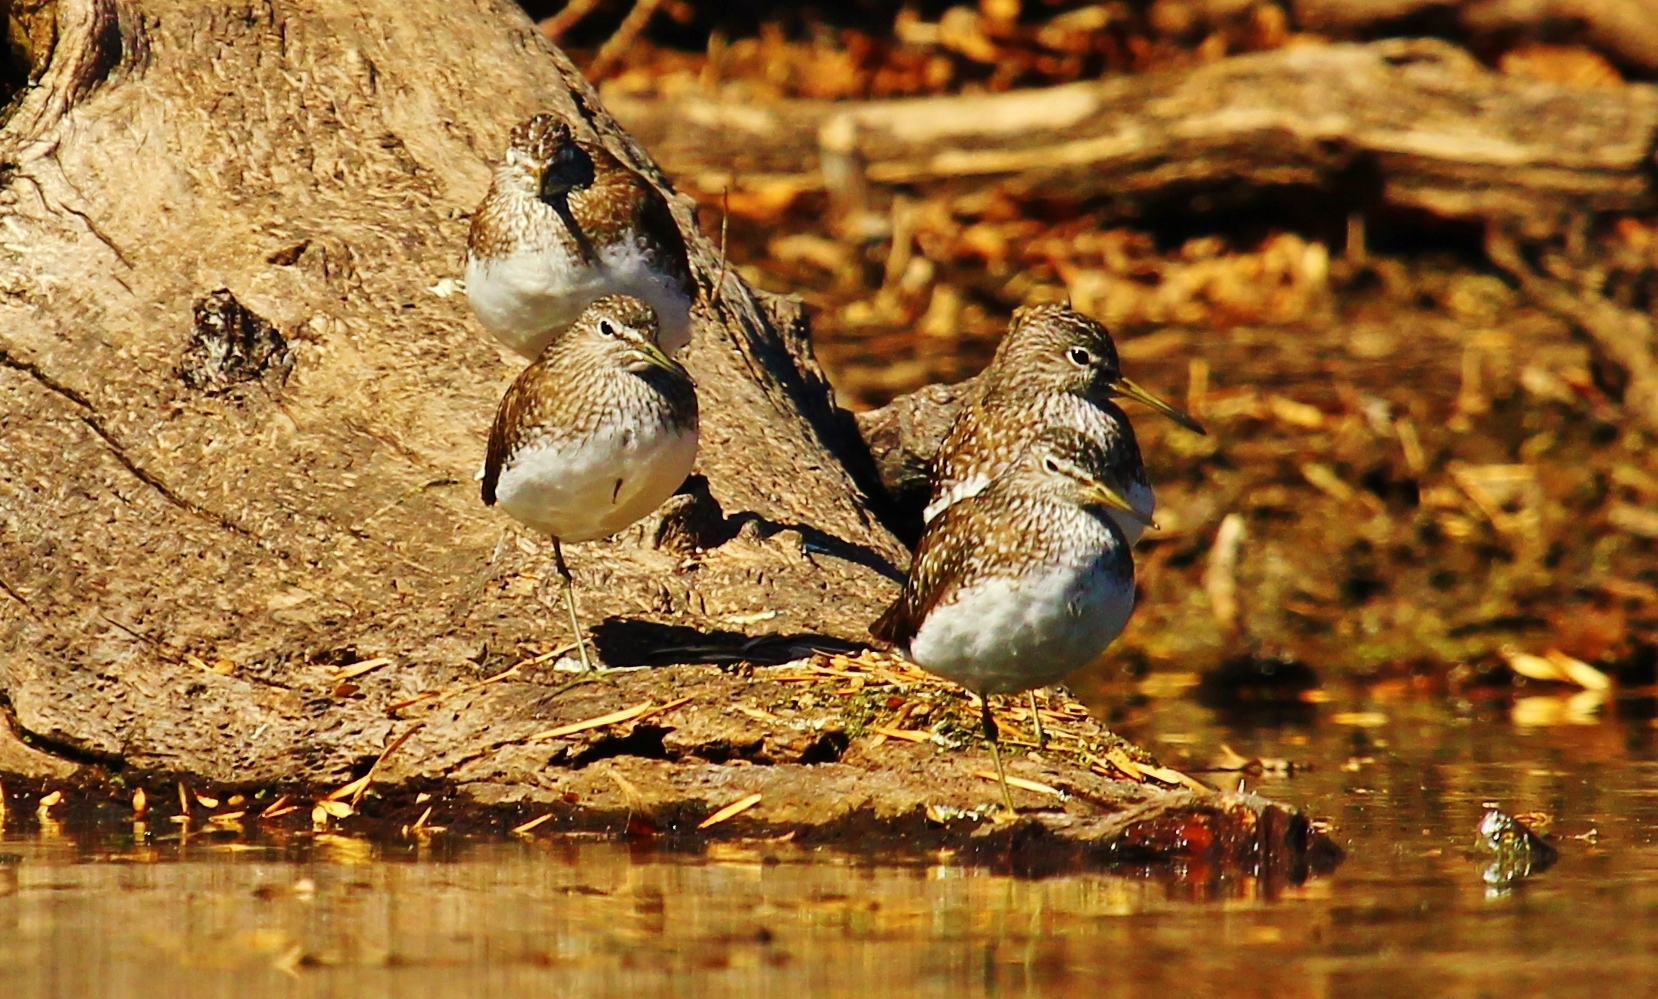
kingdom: Animalia
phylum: Chordata
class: Aves
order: Charadriiformes
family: Scolopacidae
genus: Tringa
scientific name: Tringa ochropus
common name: Green sandpiper
